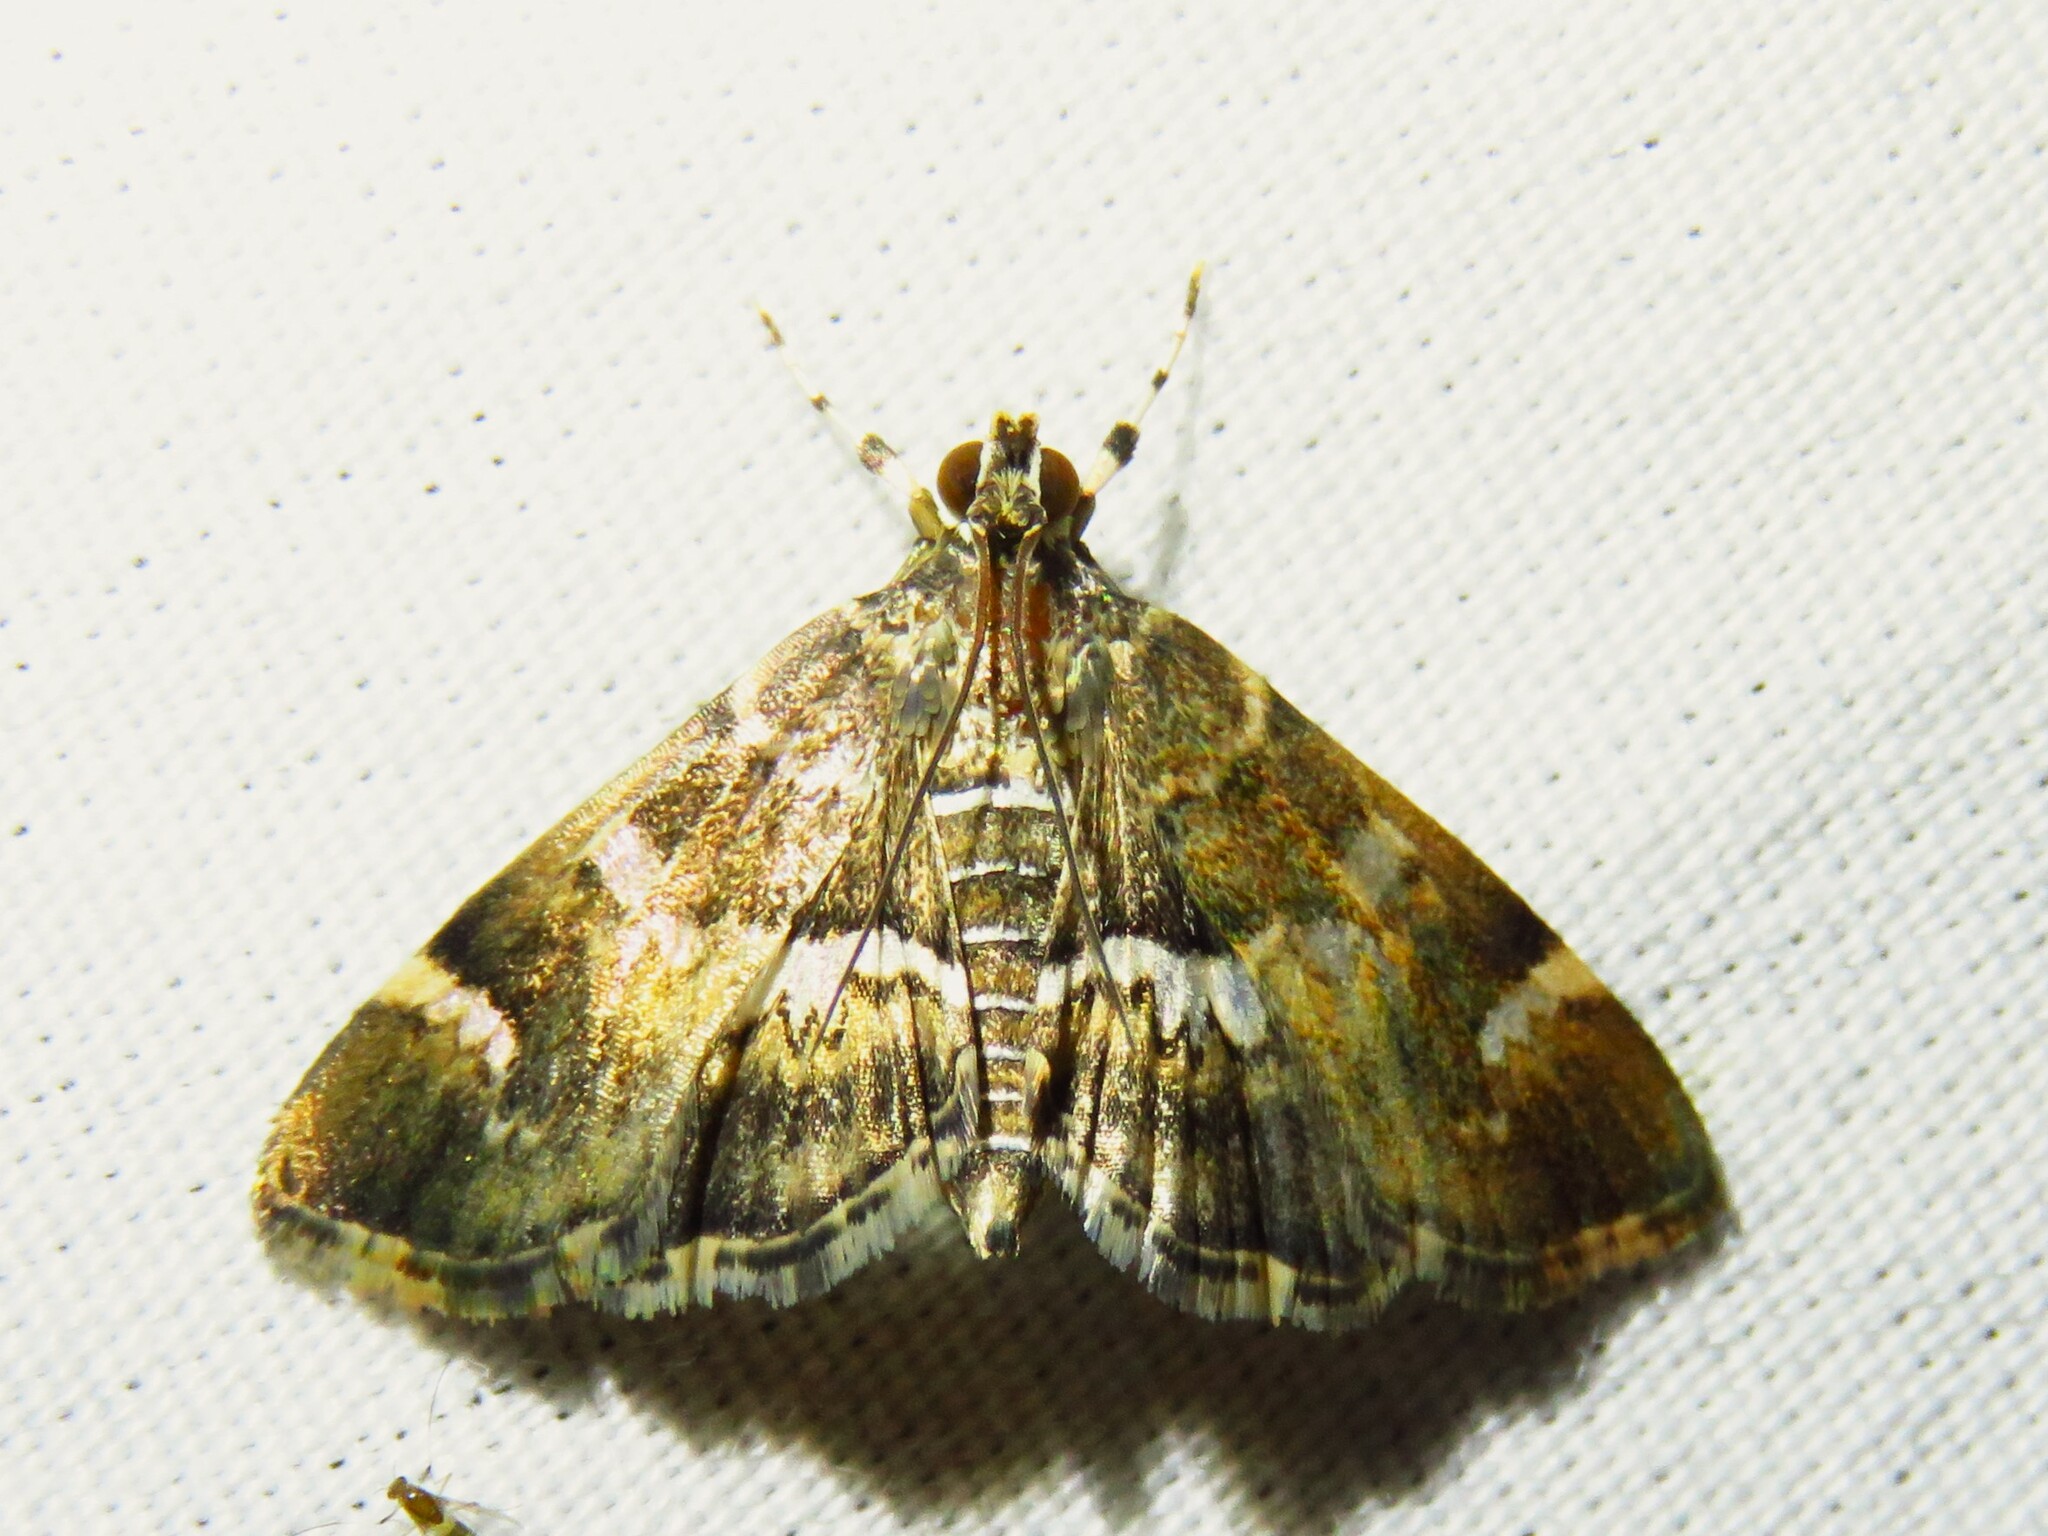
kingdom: Animalia
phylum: Arthropoda
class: Insecta
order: Lepidoptera
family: Crambidae
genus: Hymenia
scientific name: Hymenia perspectalis
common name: Spotted beet webworm
